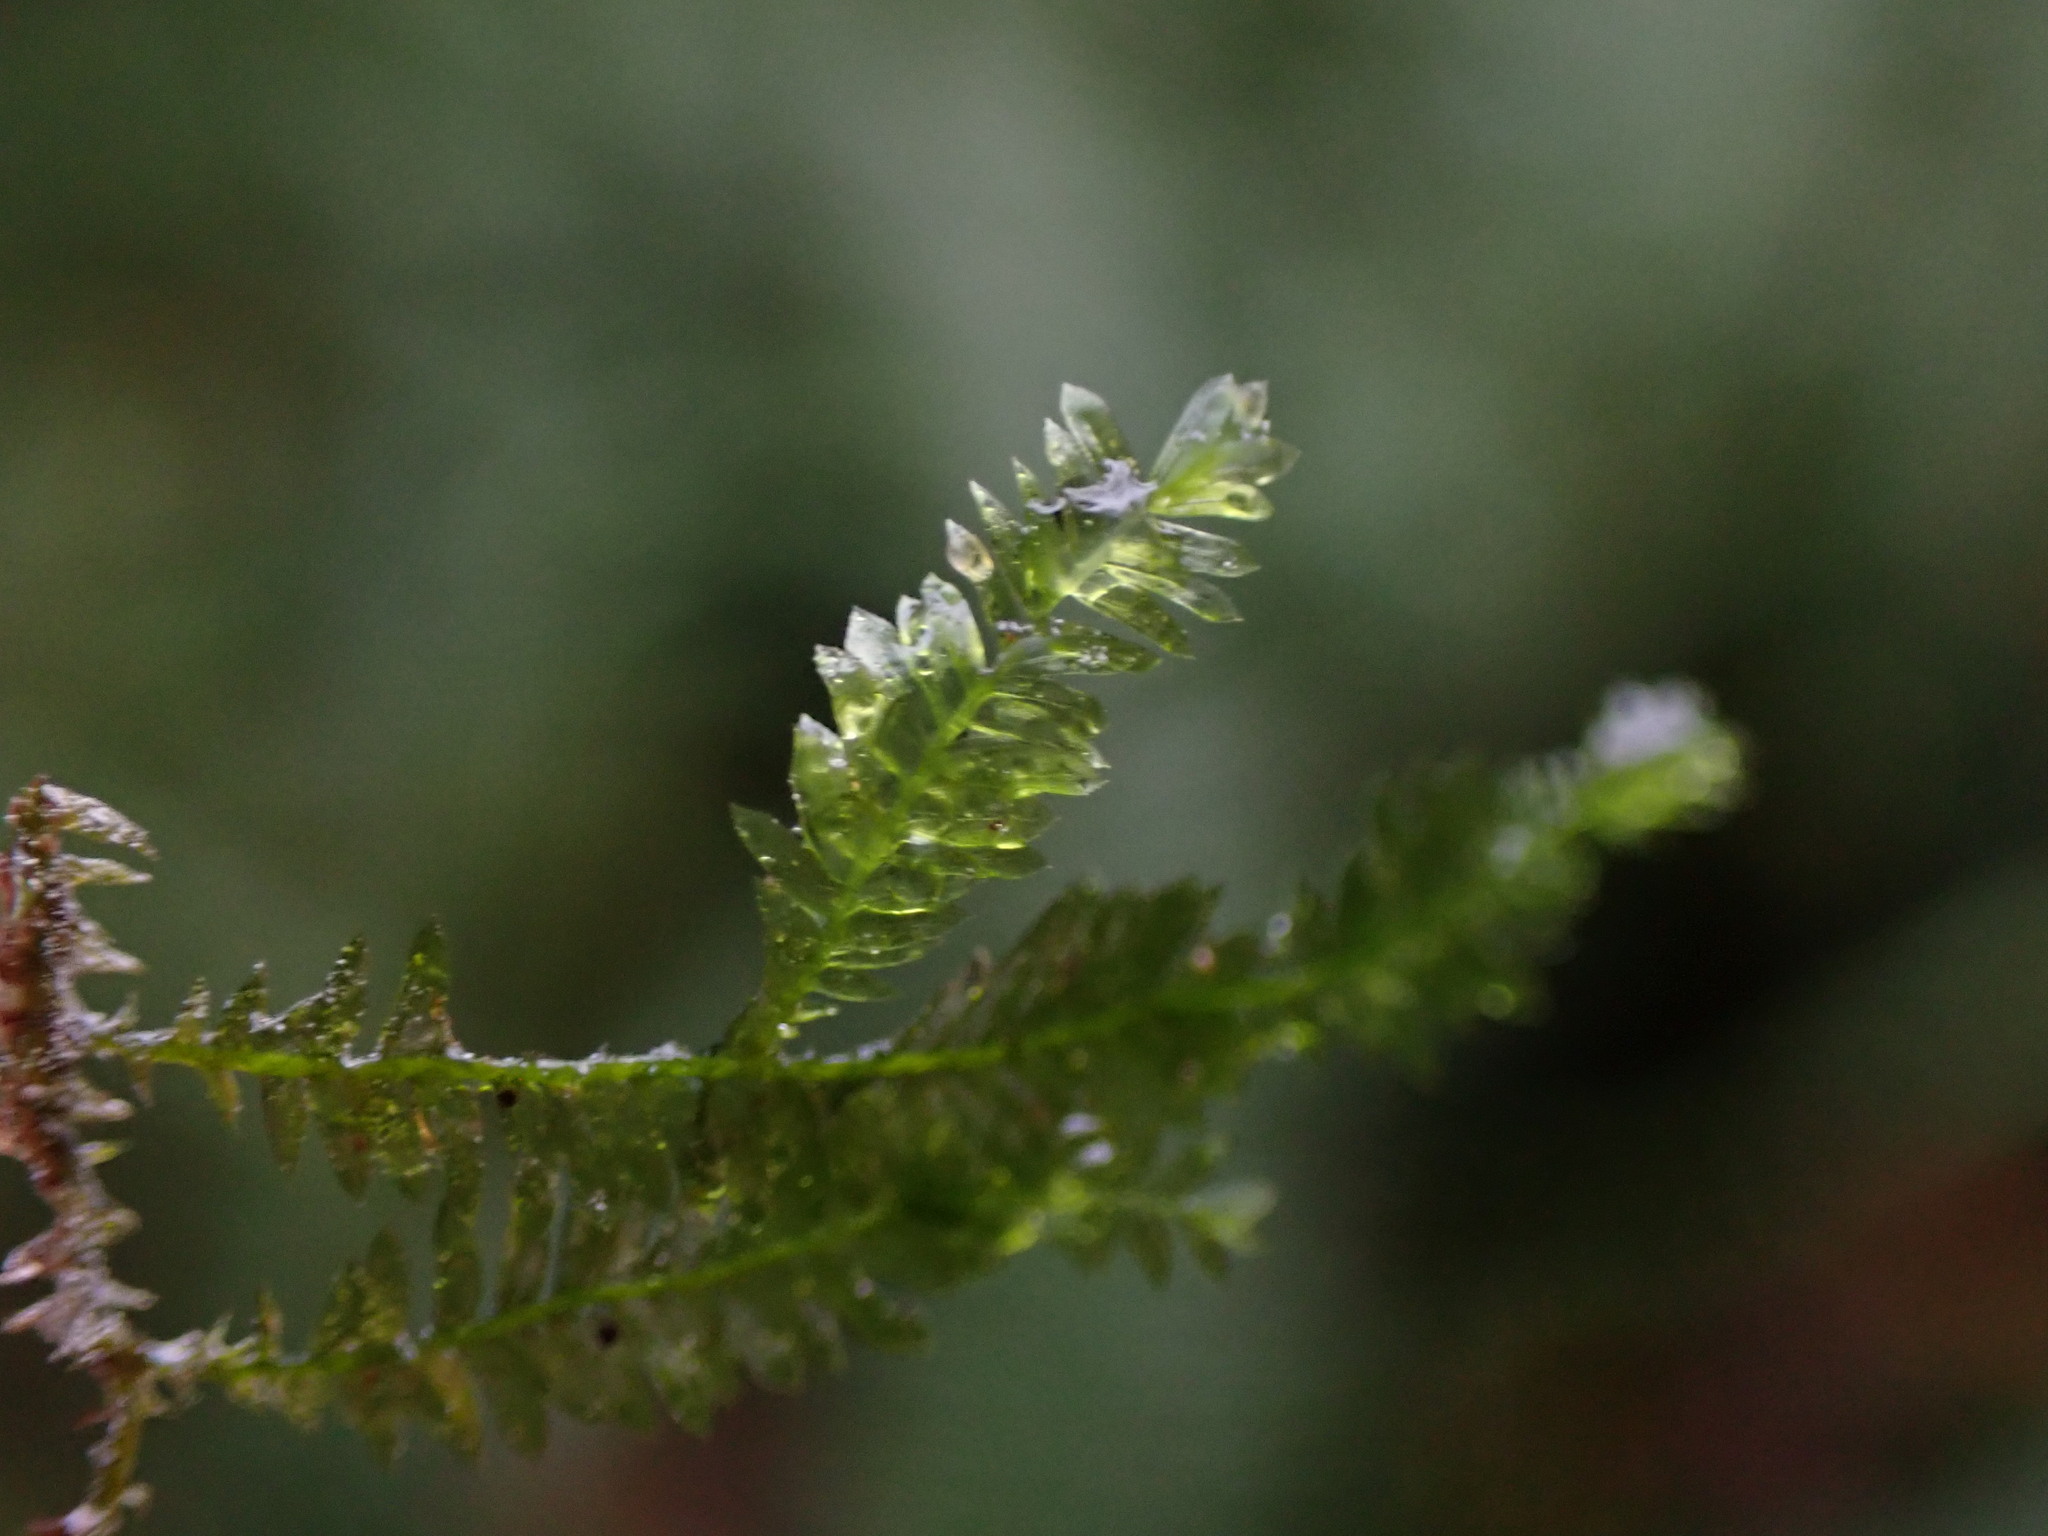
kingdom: Plantae
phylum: Bryophyta
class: Bryopsida
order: Hypnales
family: Neckeraceae
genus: Dannorrisia
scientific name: Dannorrisia bigelovii
